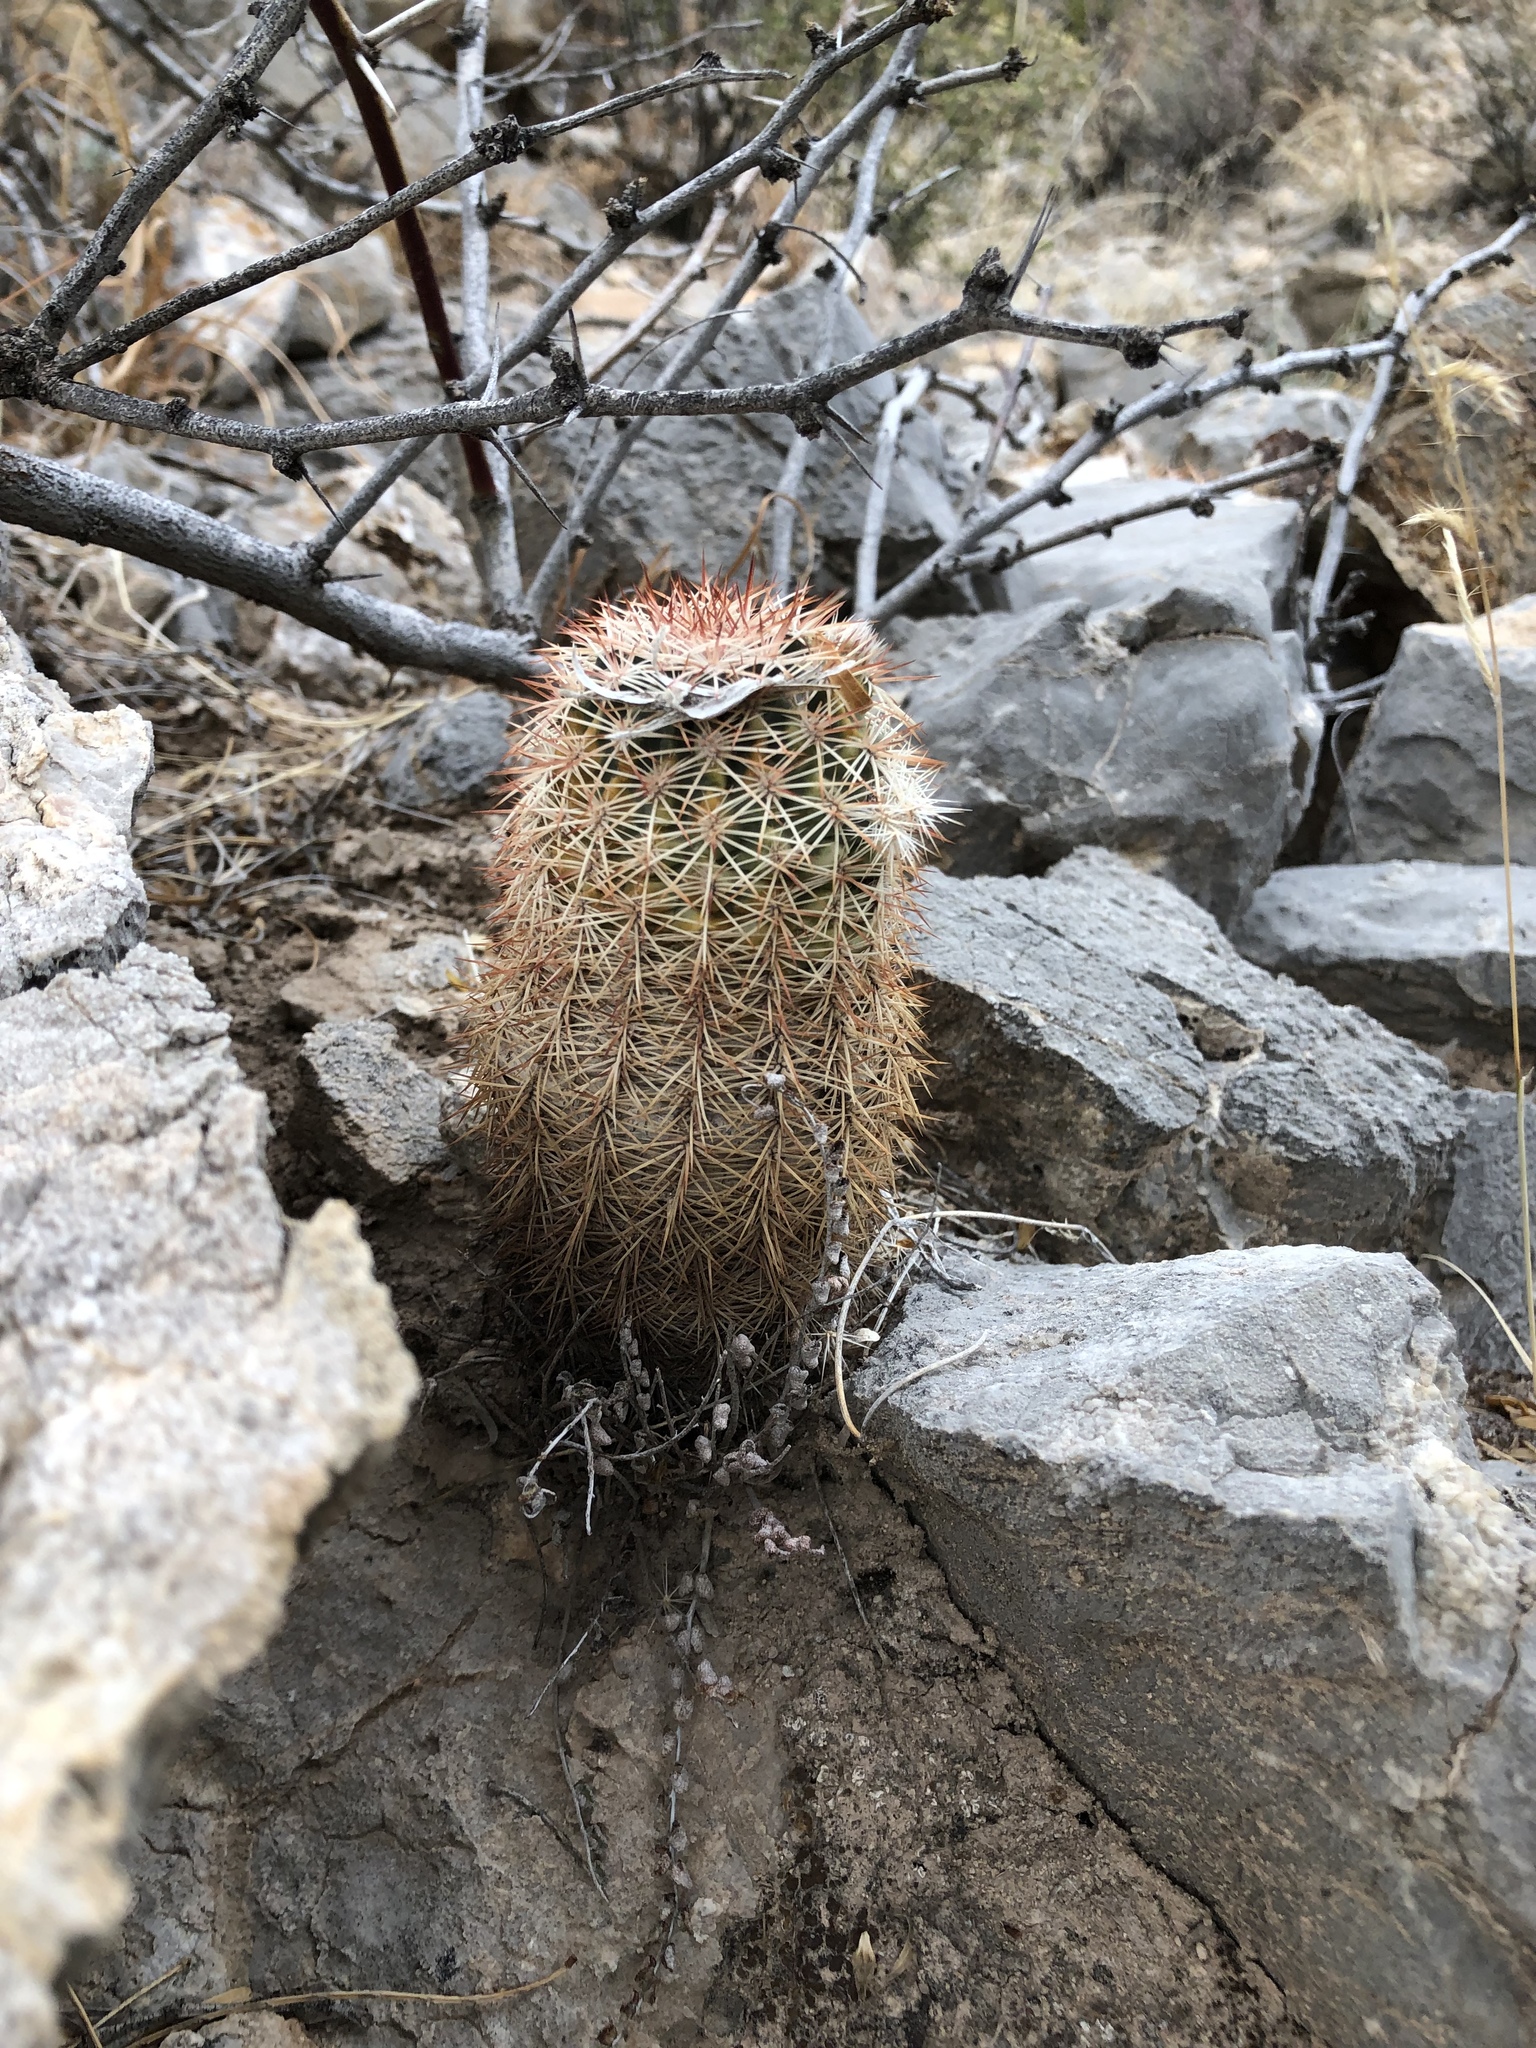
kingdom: Plantae
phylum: Tracheophyta
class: Magnoliopsida
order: Caryophyllales
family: Cactaceae
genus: Echinocereus
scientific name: Echinocereus roetteri
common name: Lloyd's hedgehog cactus
